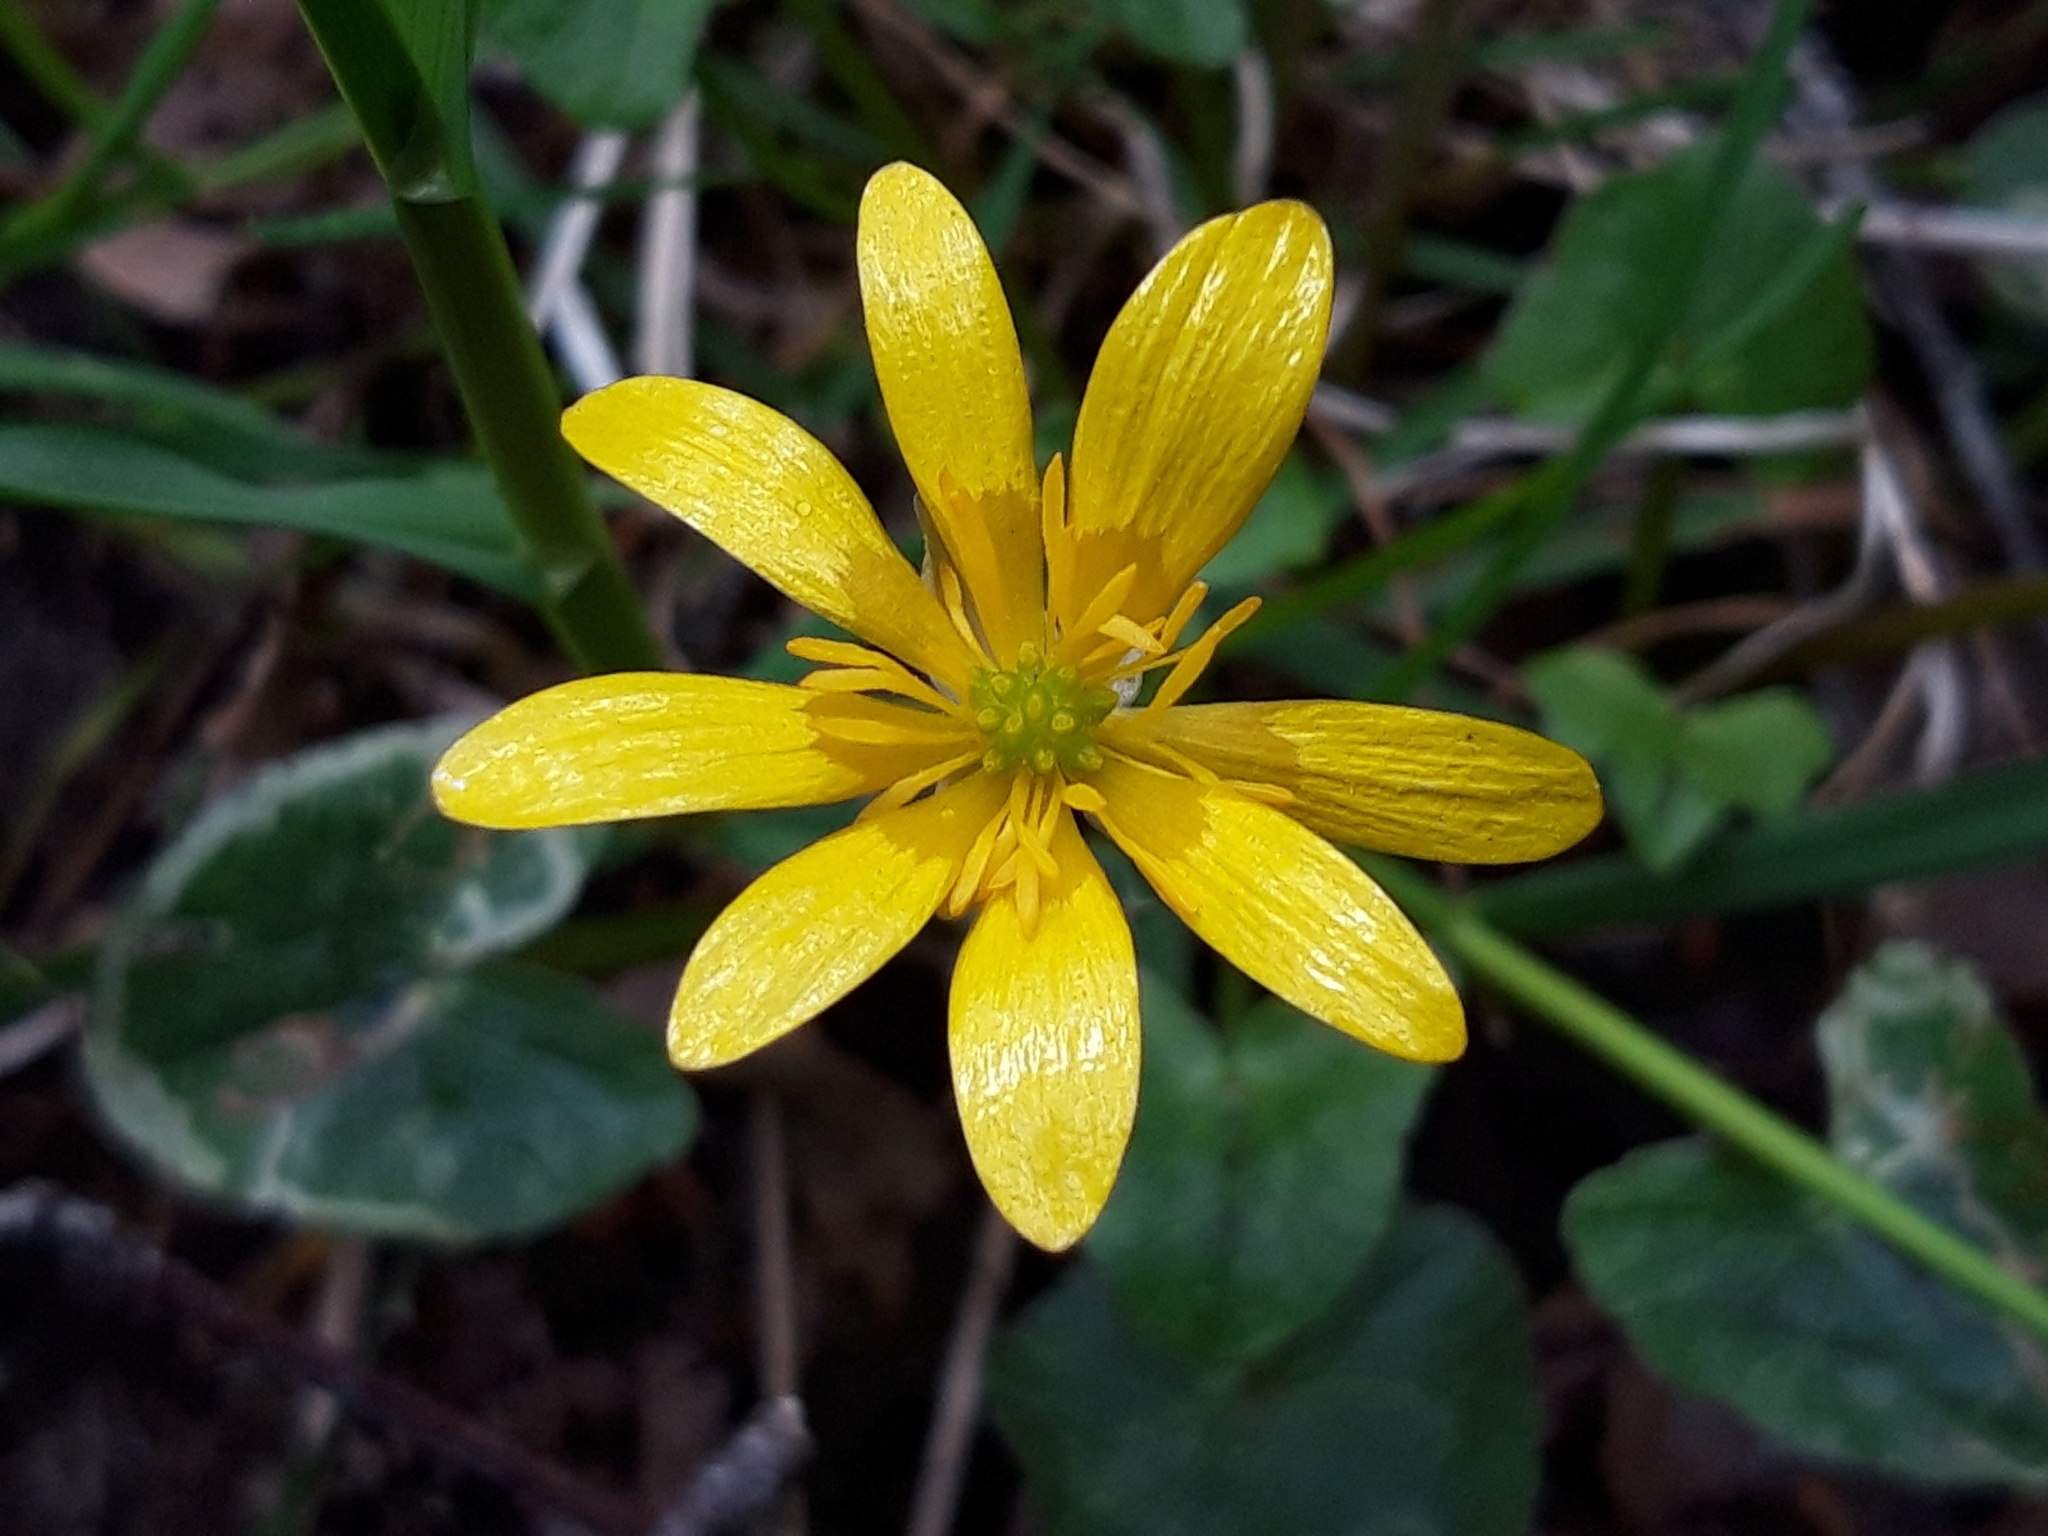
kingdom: Plantae
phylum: Tracheophyta
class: Magnoliopsida
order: Ranunculales
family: Ranunculaceae
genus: Ficaria
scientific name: Ficaria verna
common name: Lesser celandine
